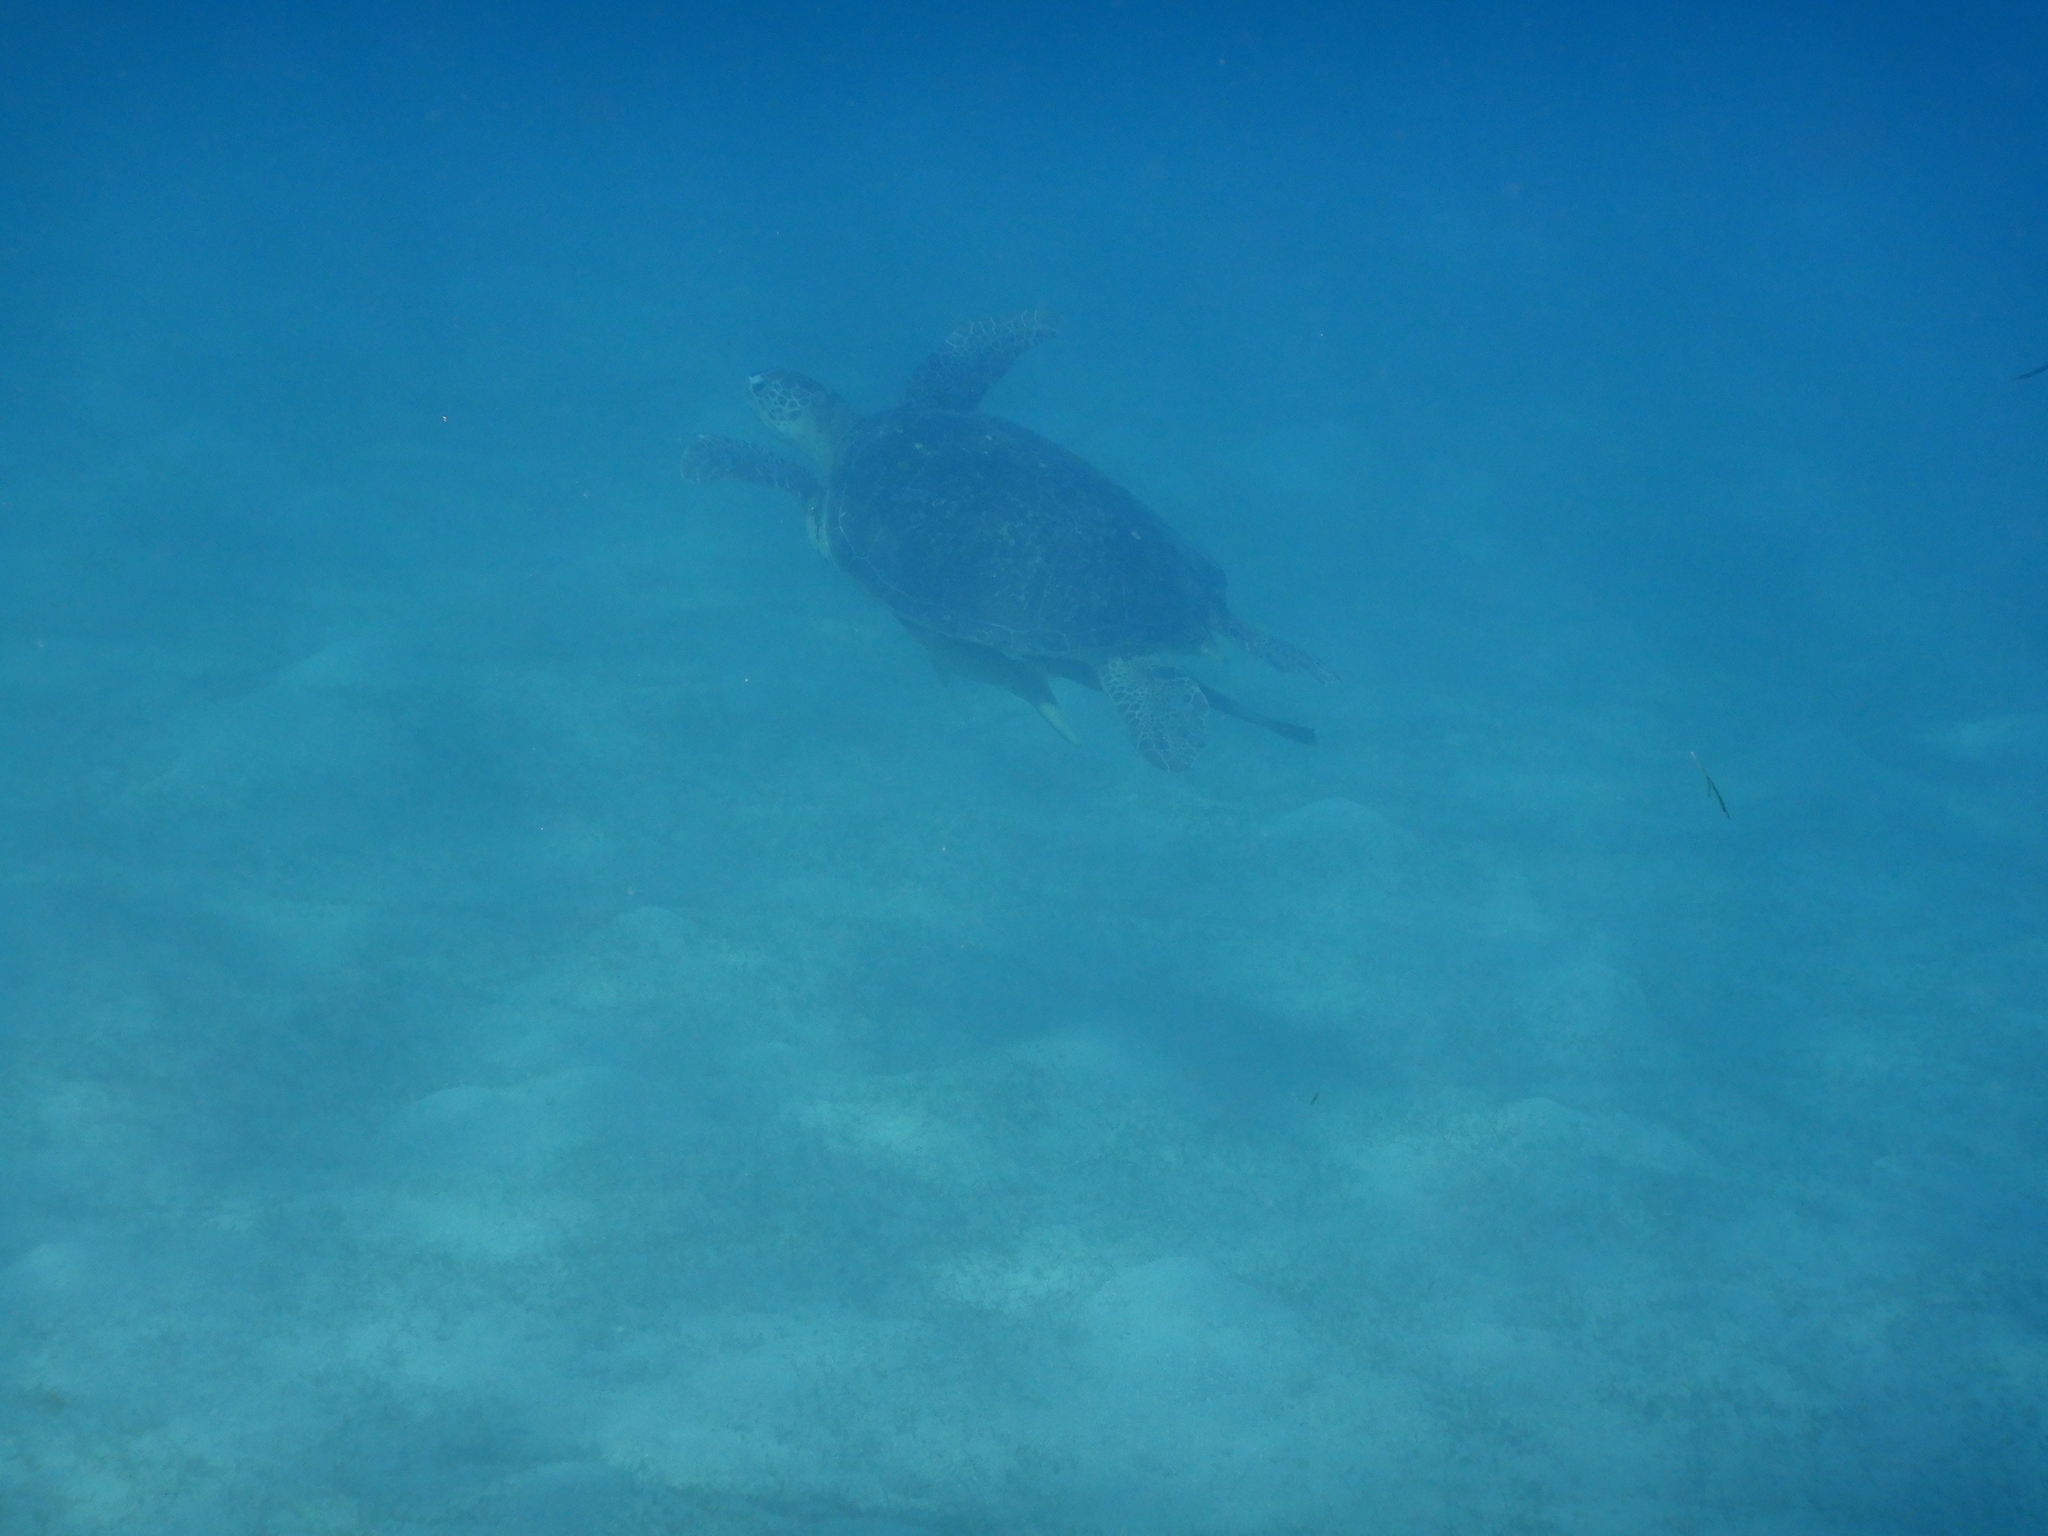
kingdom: Animalia
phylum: Chordata
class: Testudines
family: Cheloniidae
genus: Chelonia
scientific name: Chelonia mydas
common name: Green turtle
